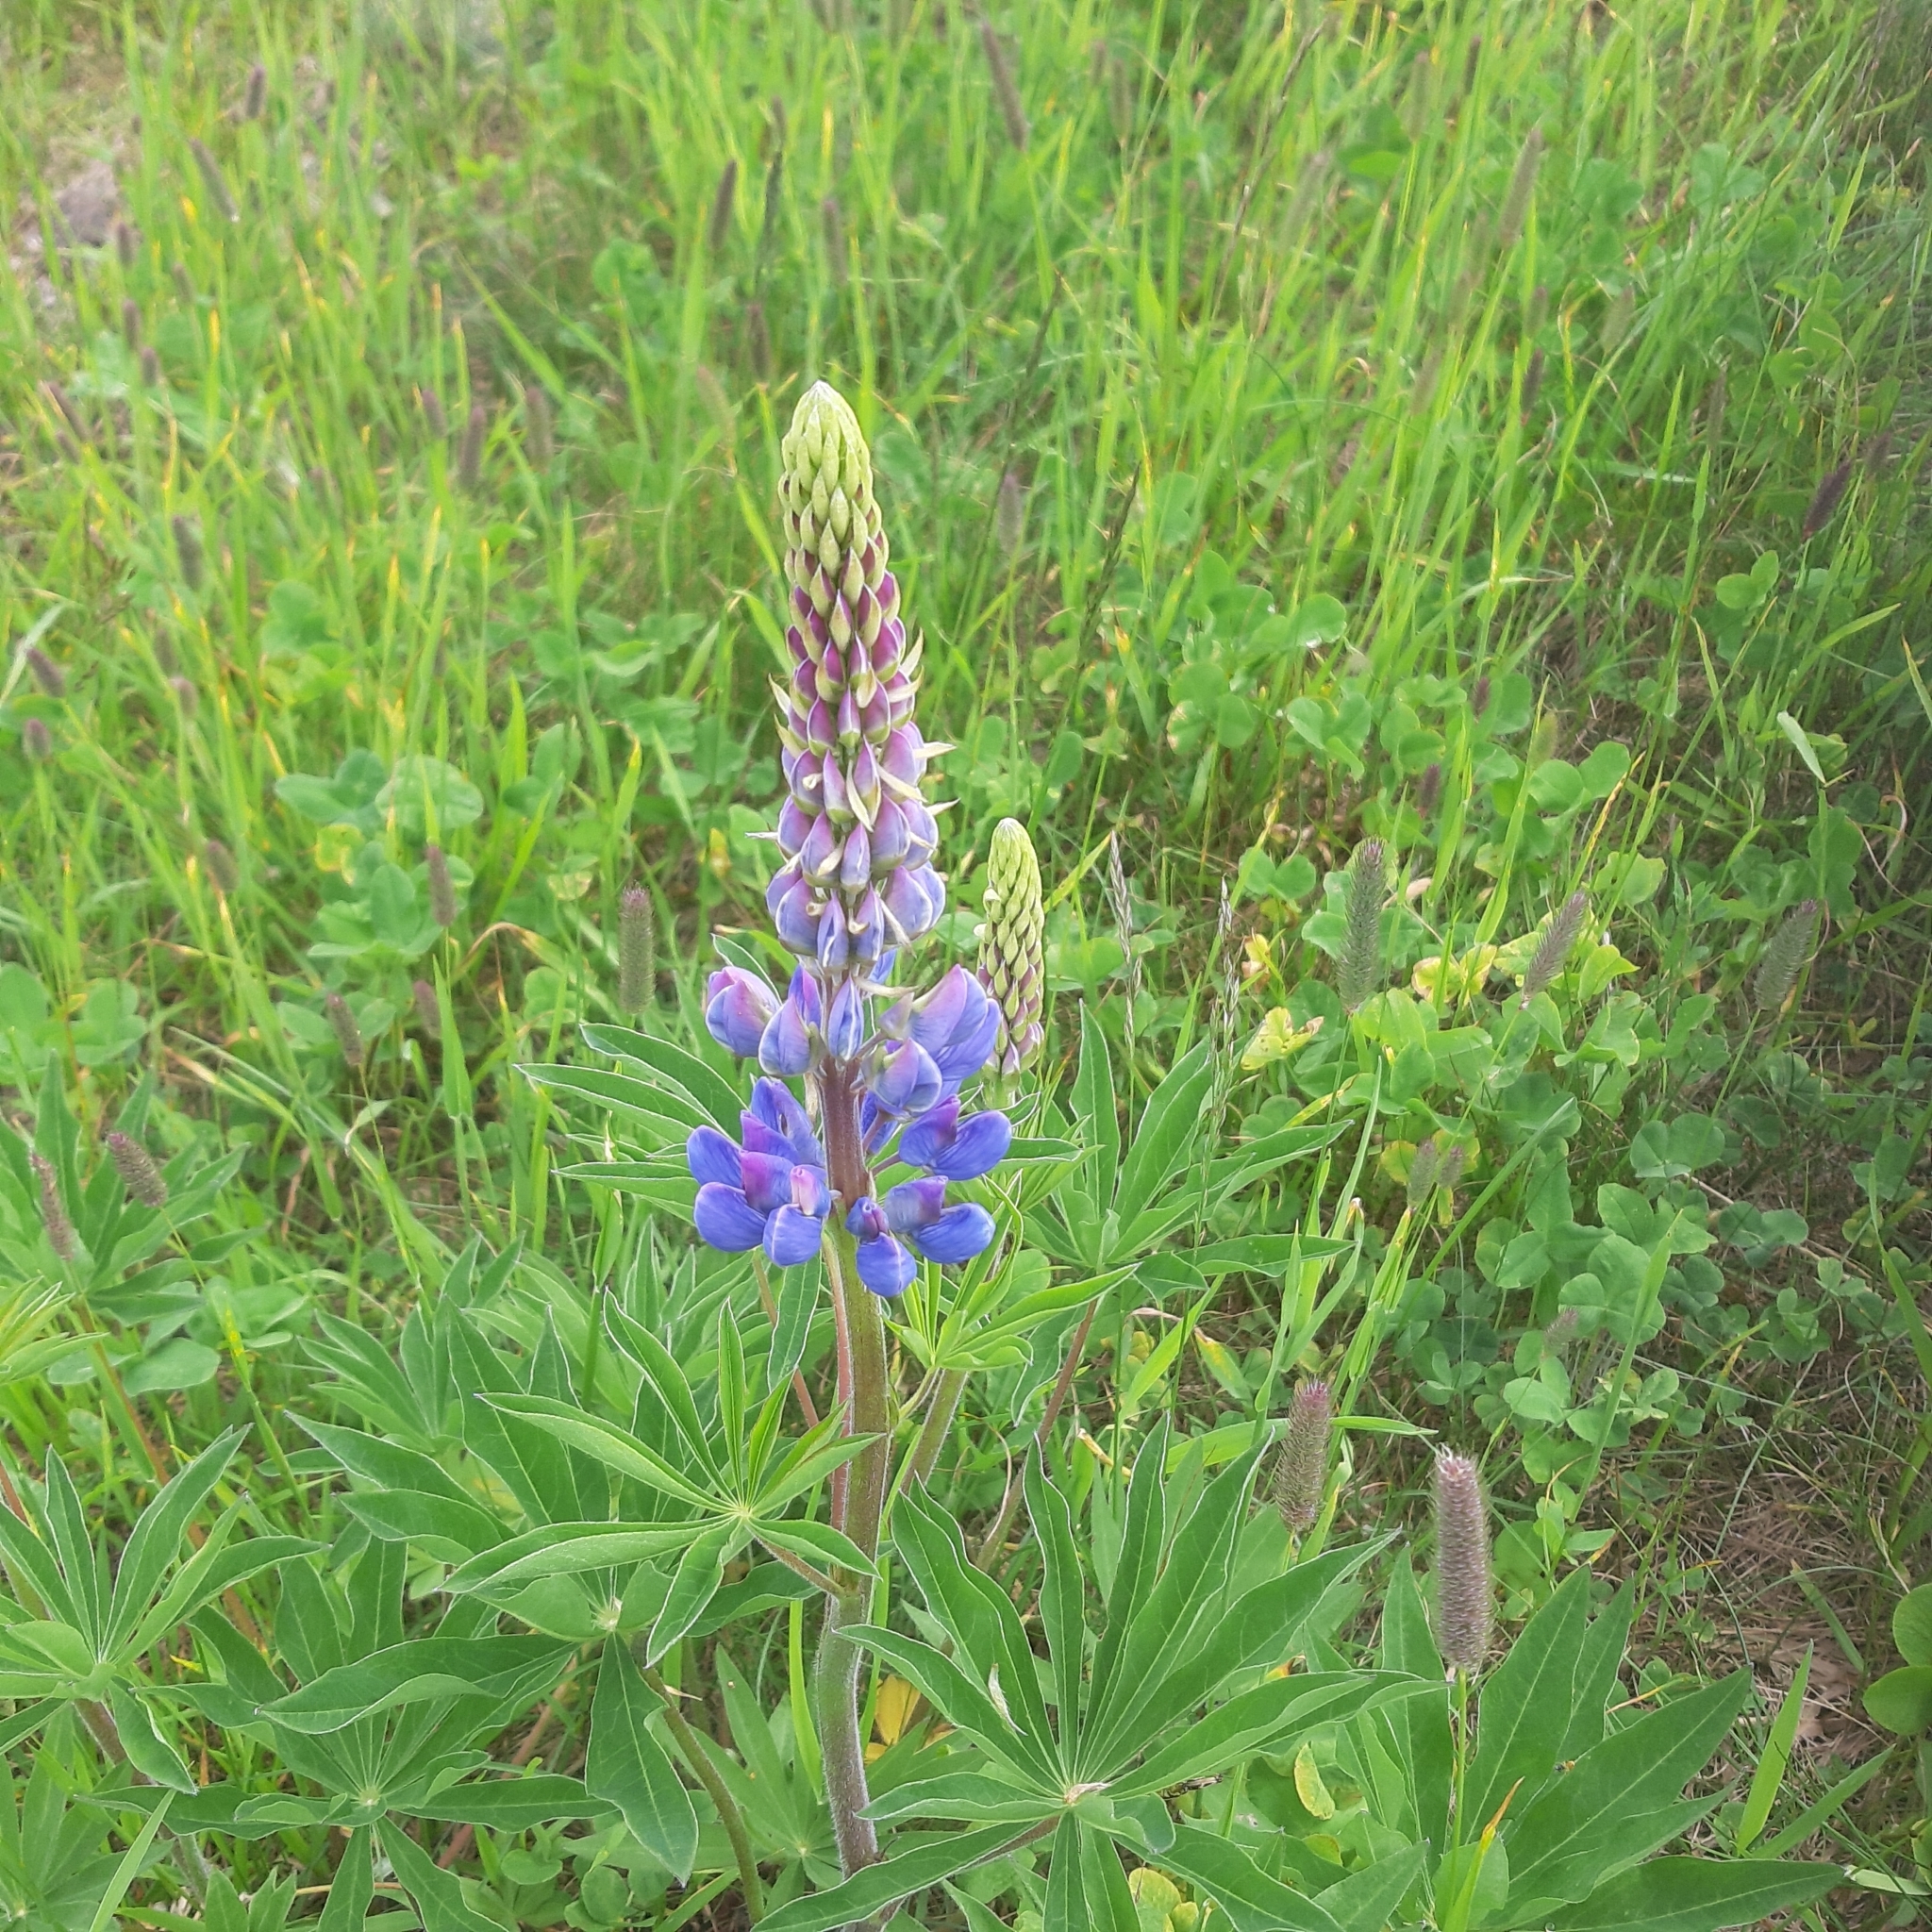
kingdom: Plantae
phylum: Tracheophyta
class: Magnoliopsida
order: Fabales
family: Fabaceae
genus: Lupinus
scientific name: Lupinus polyphyllus
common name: Garden lupin
